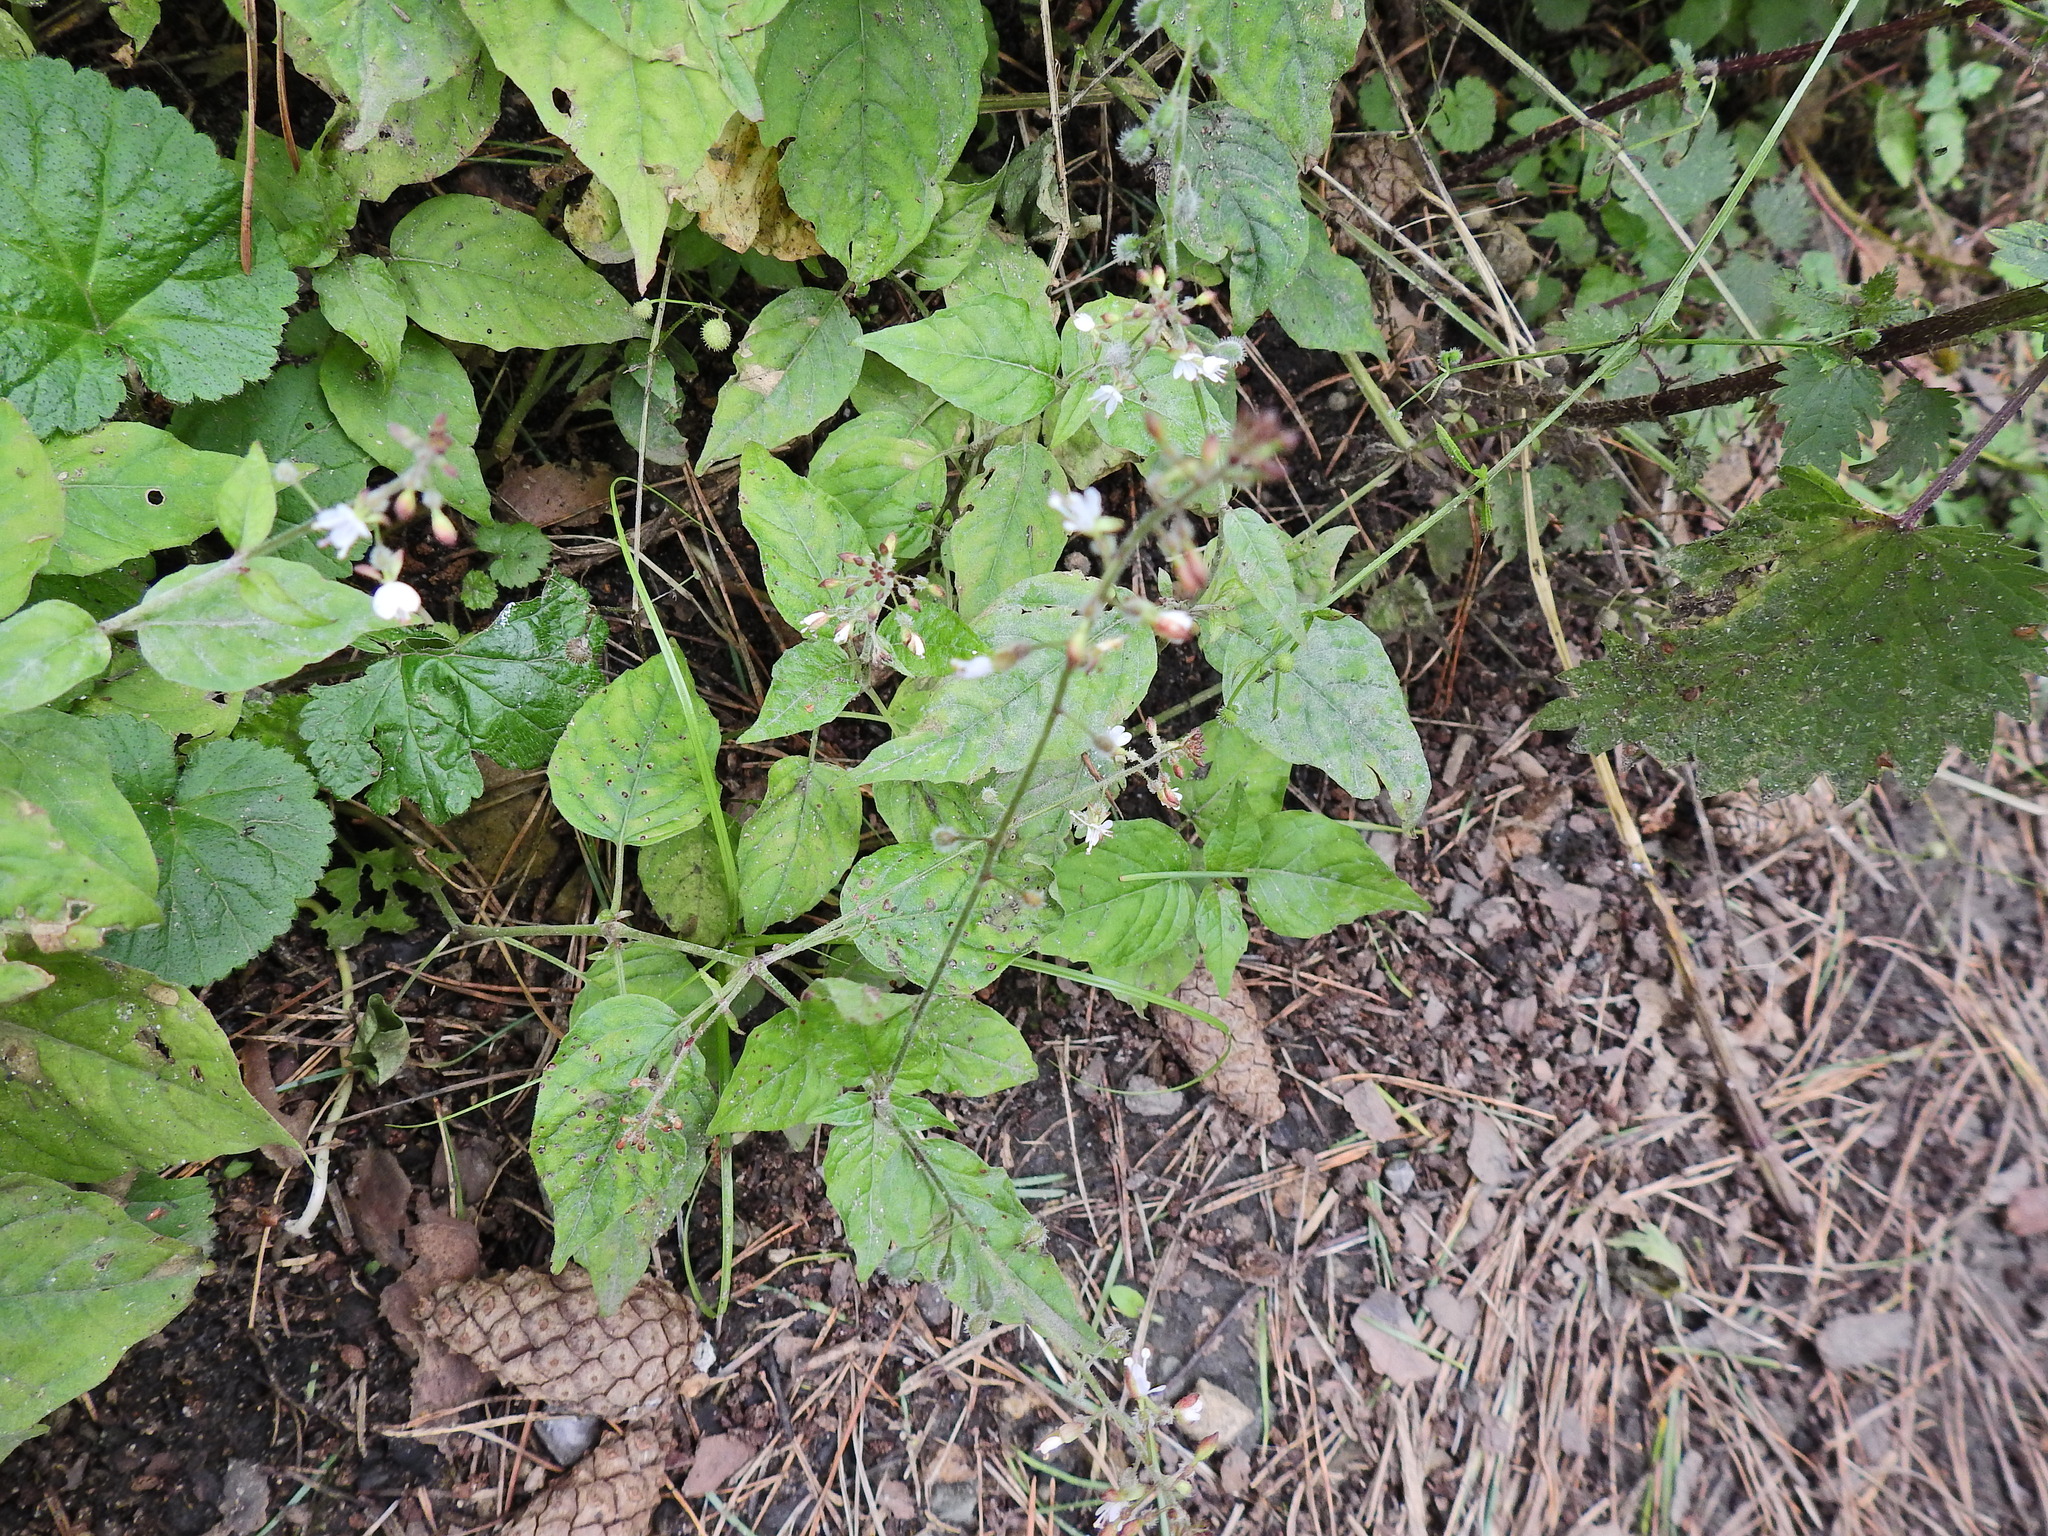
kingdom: Plantae
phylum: Tracheophyta
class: Magnoliopsida
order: Myrtales
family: Onagraceae
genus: Circaea
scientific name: Circaea lutetiana
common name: Enchanter's-nightshade
